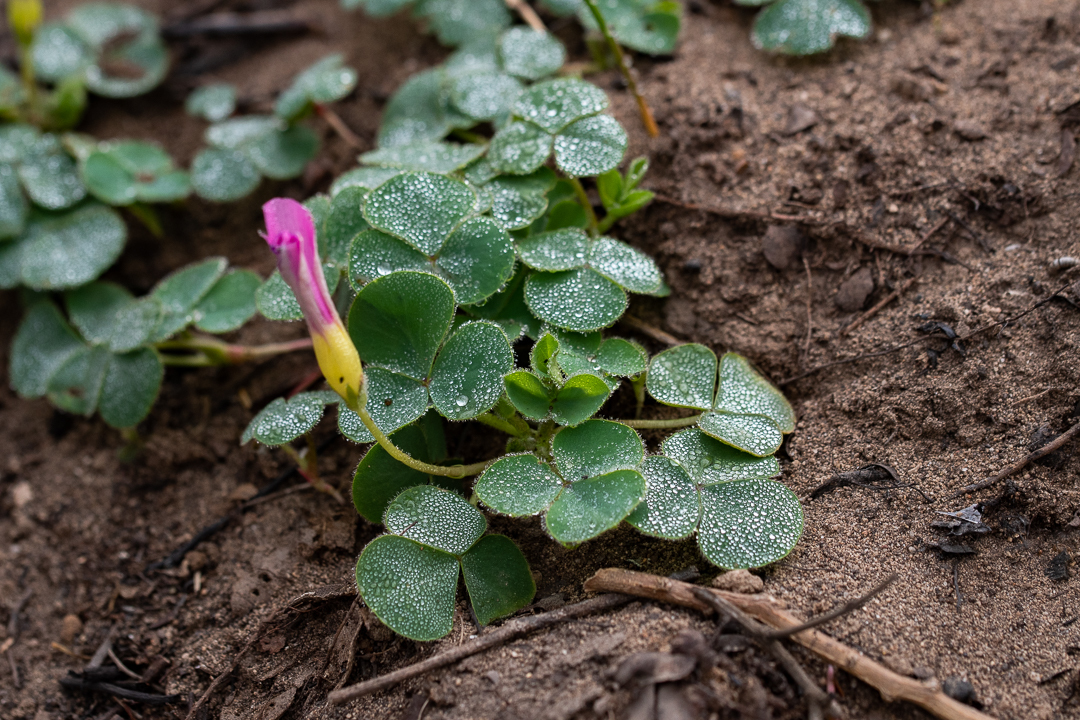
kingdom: Plantae
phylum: Tracheophyta
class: Magnoliopsida
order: Oxalidales
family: Oxalidaceae
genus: Oxalis
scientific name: Oxalis purpurea
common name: Purple woodsorrel
